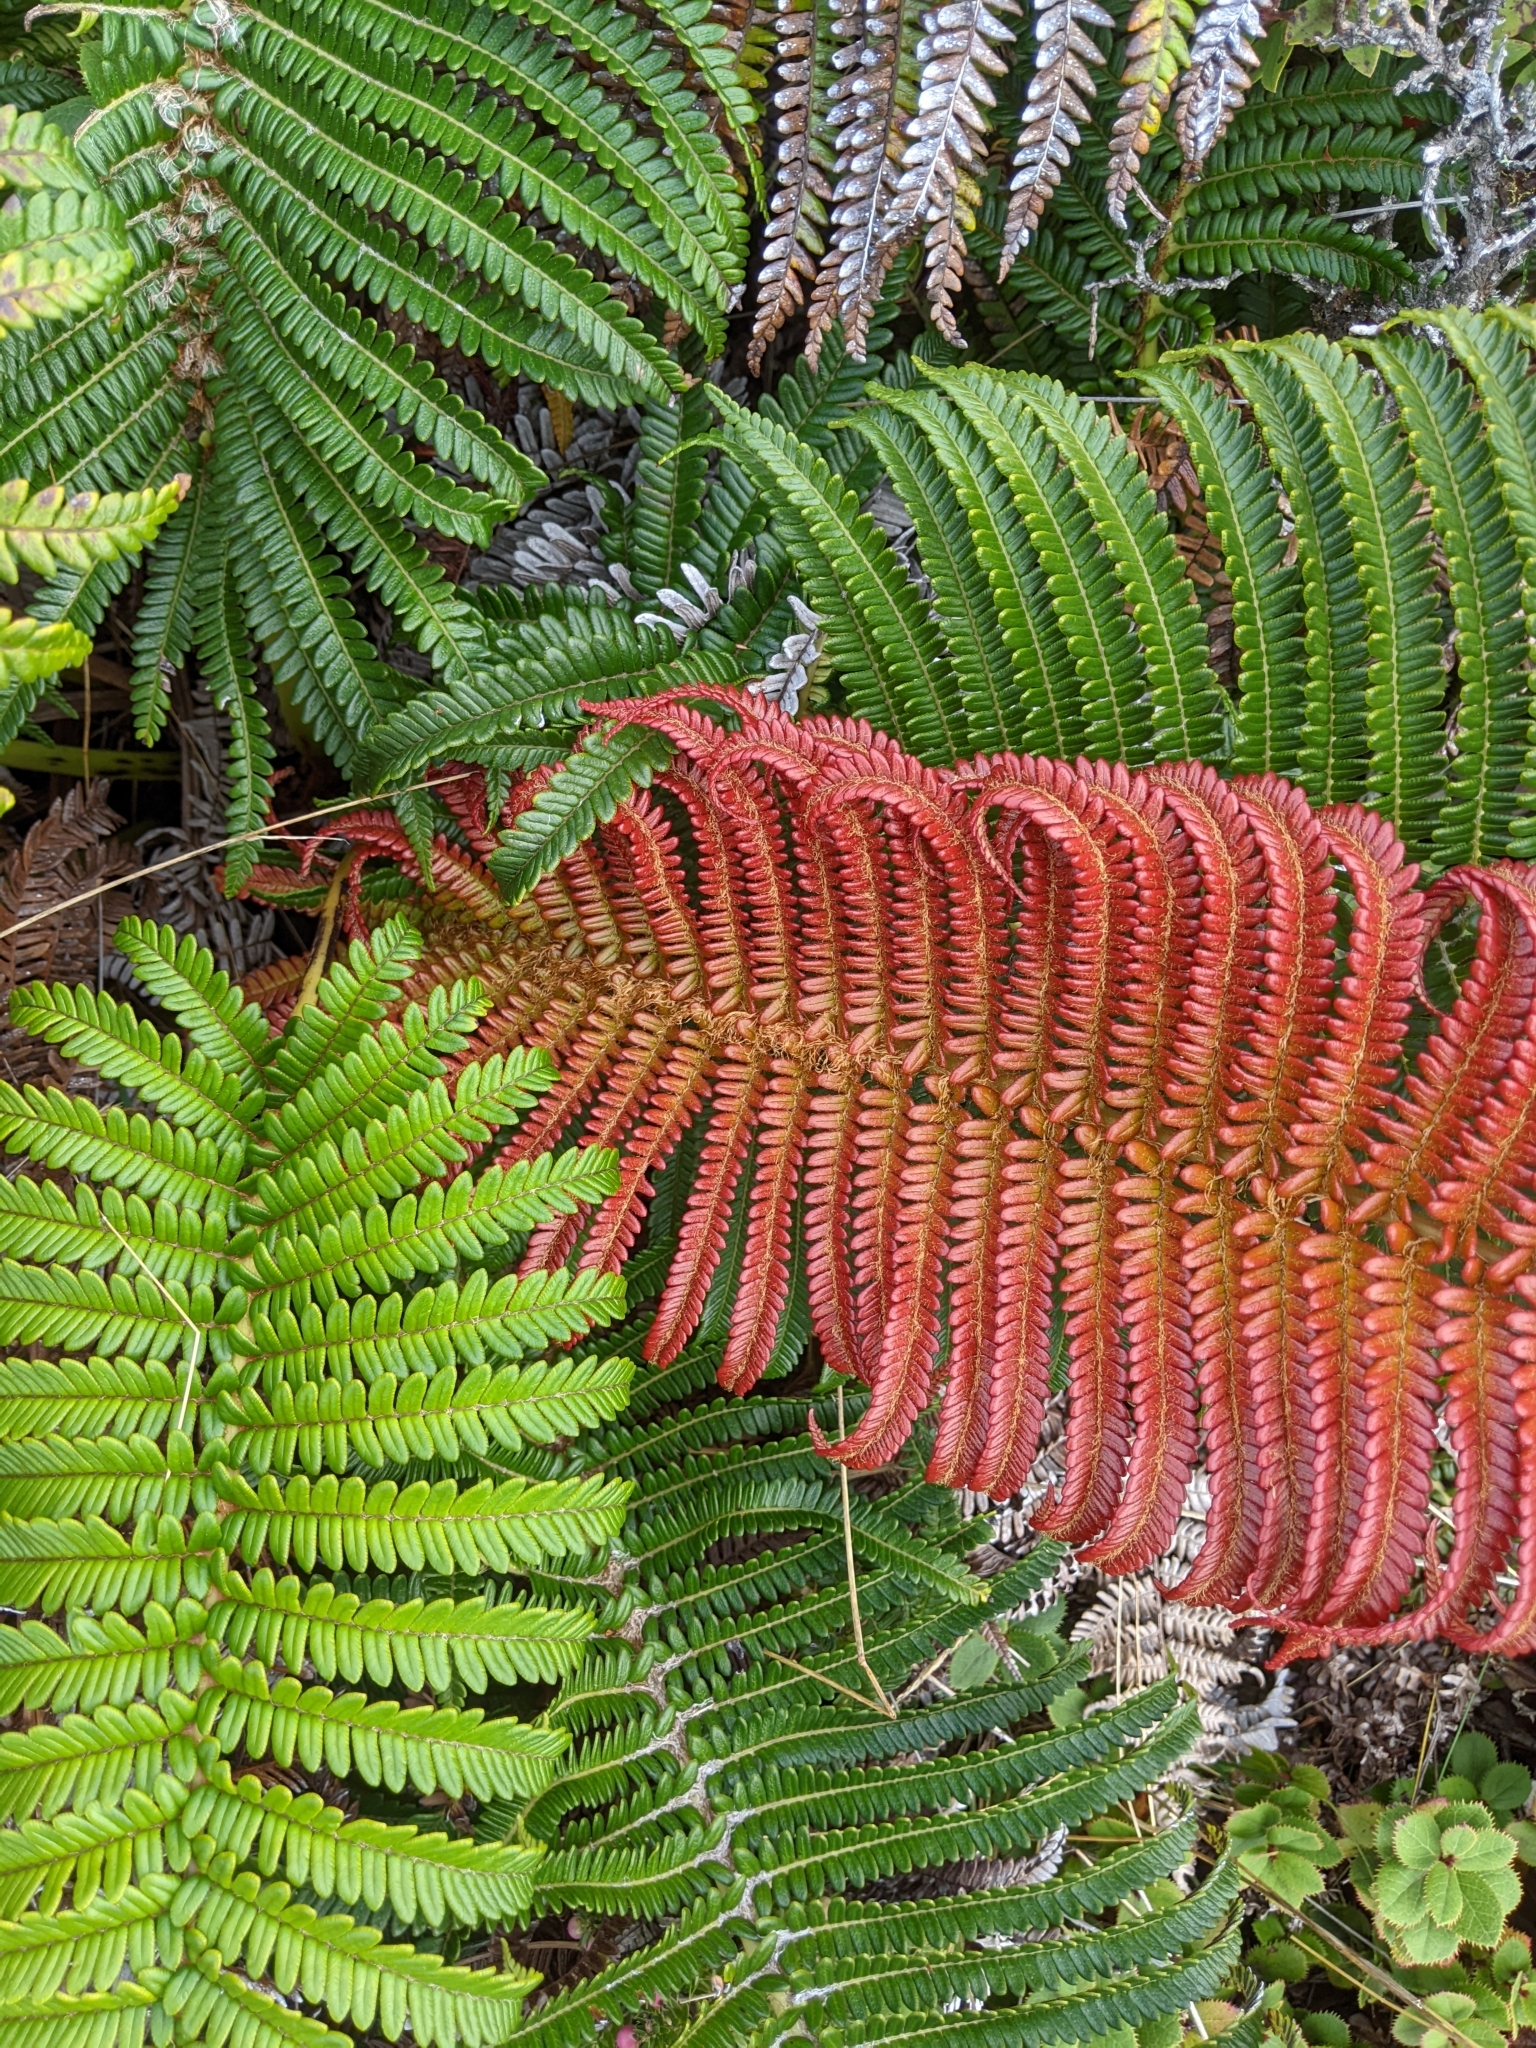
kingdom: Plantae
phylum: Tracheophyta
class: Polypodiopsida
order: Polypodiales
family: Blechnaceae
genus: Sadleria
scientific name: Sadleria cyatheoides
